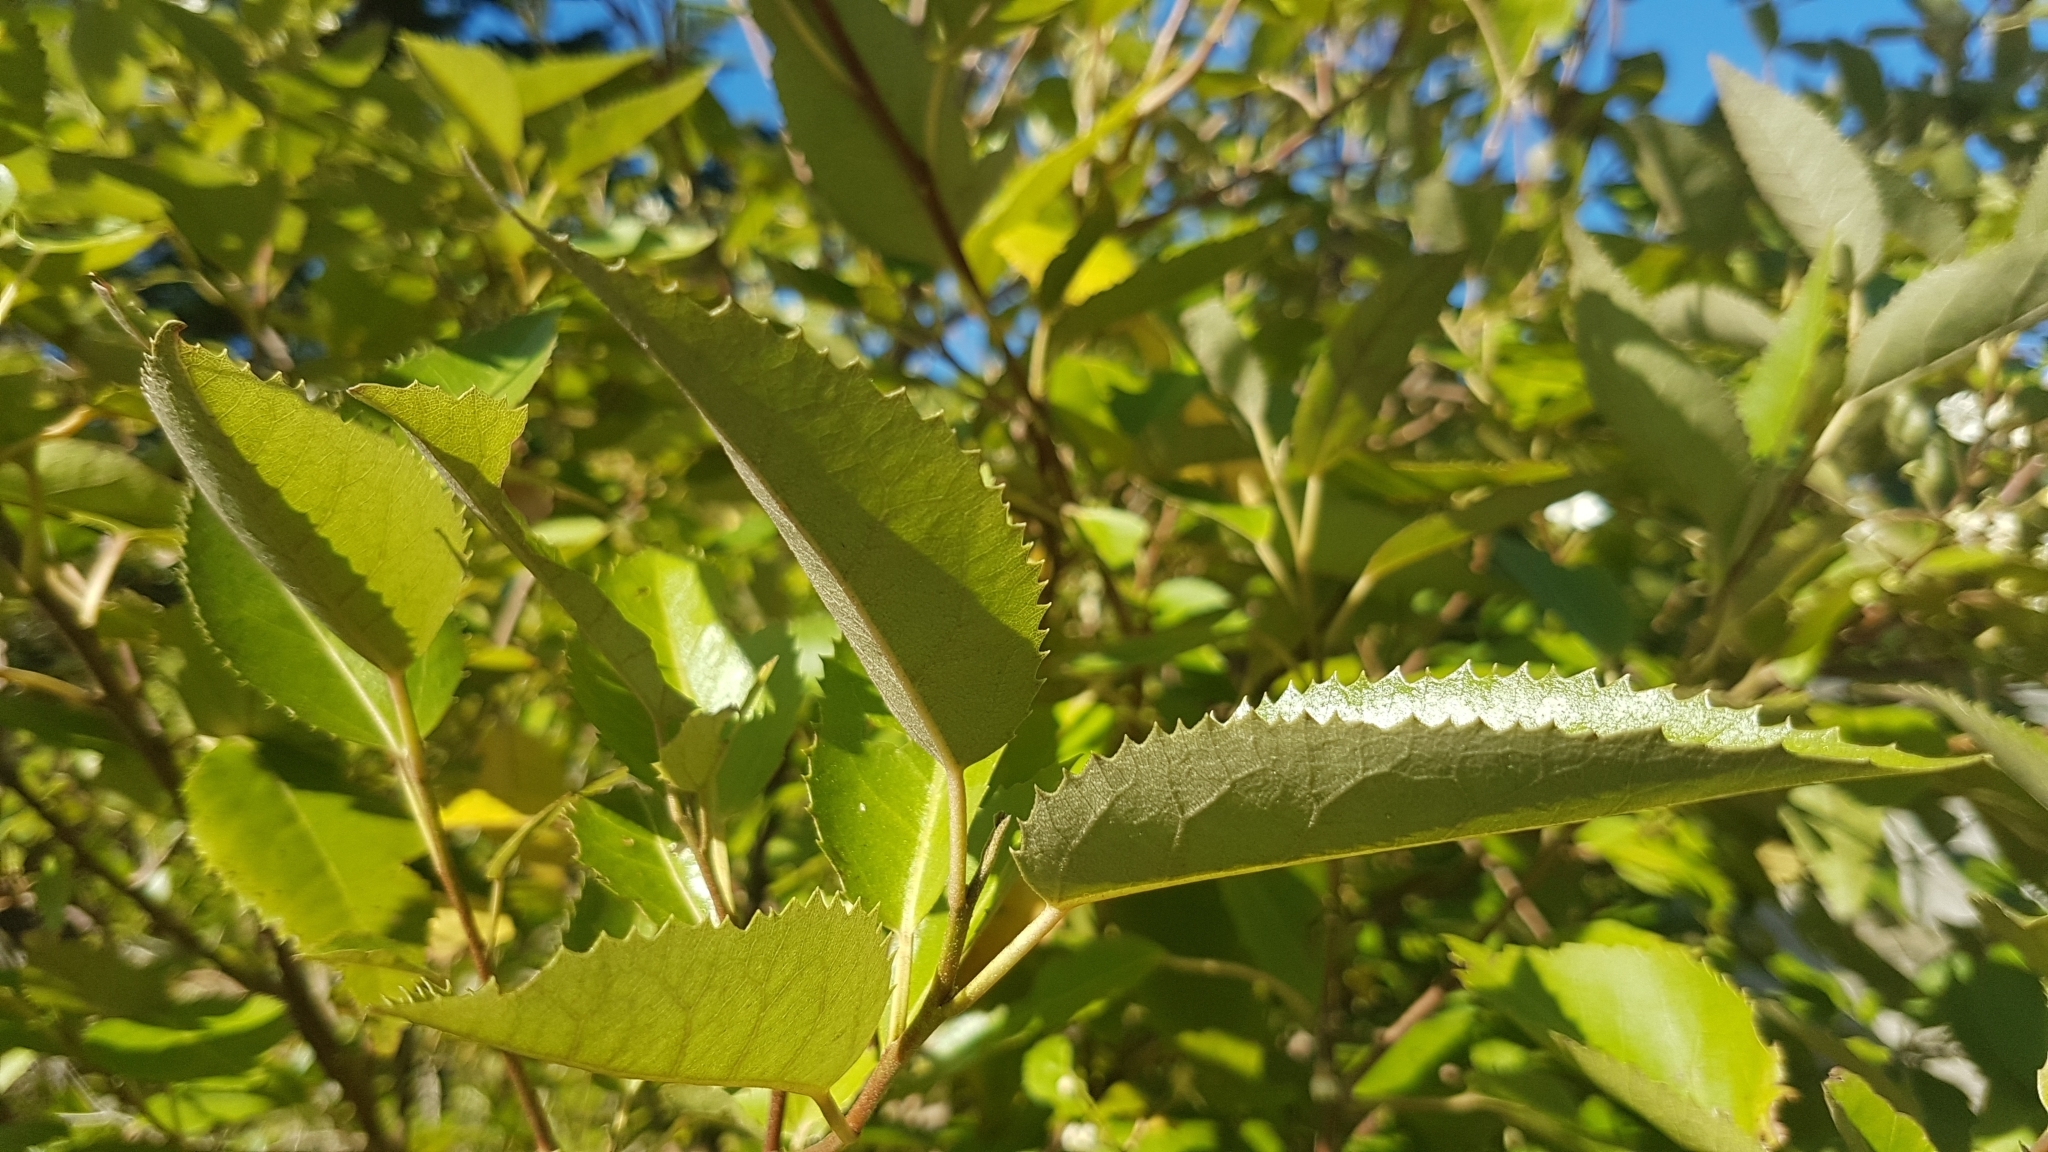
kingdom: Plantae
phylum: Tracheophyta
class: Magnoliopsida
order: Malvales
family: Malvaceae
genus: Hoheria
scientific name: Hoheria populnea
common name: Lacebark
